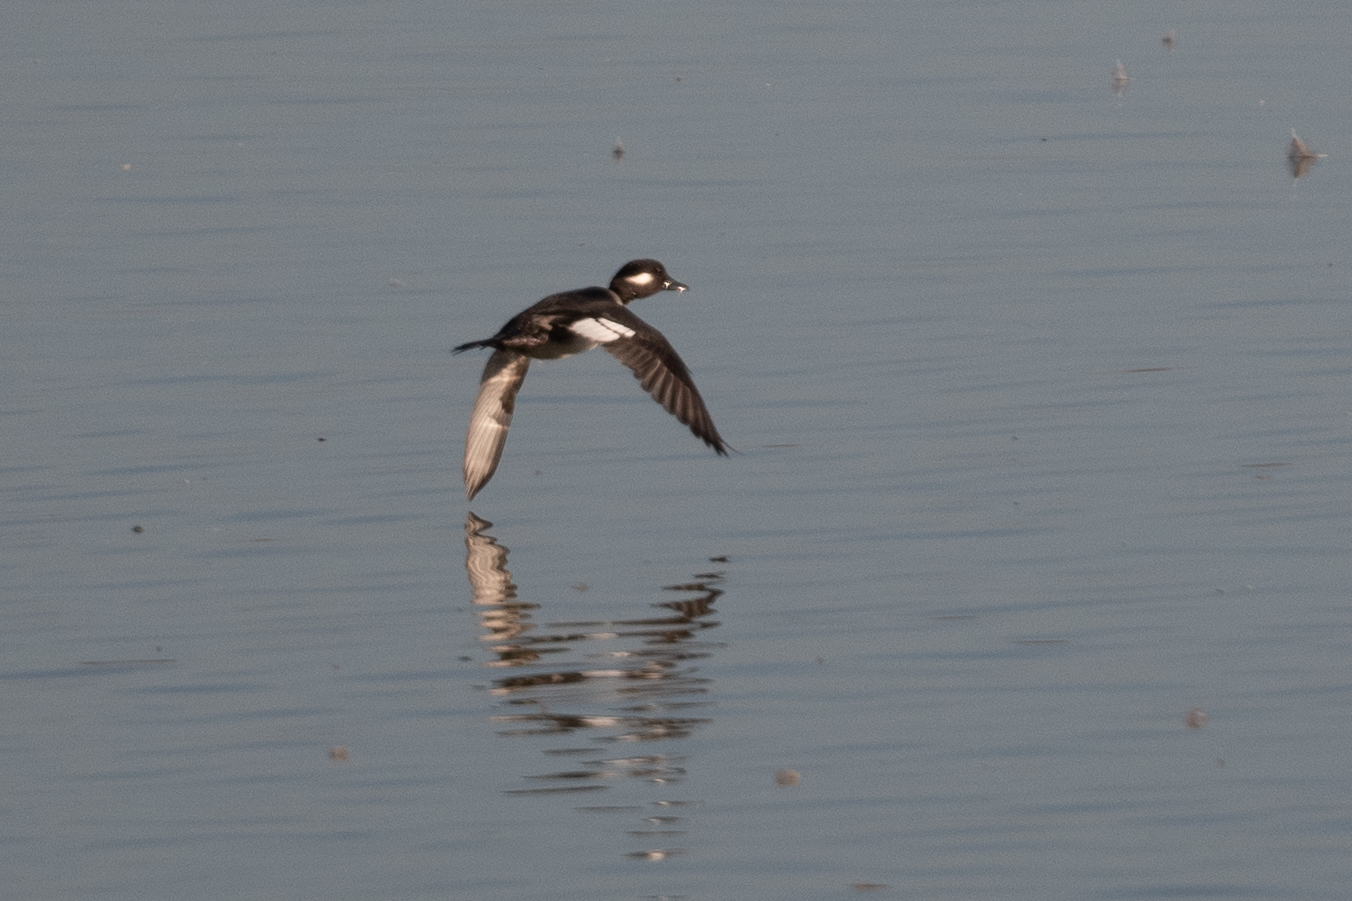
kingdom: Animalia
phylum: Chordata
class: Aves
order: Anseriformes
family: Anatidae
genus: Bucephala
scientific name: Bucephala albeola
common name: Bufflehead
